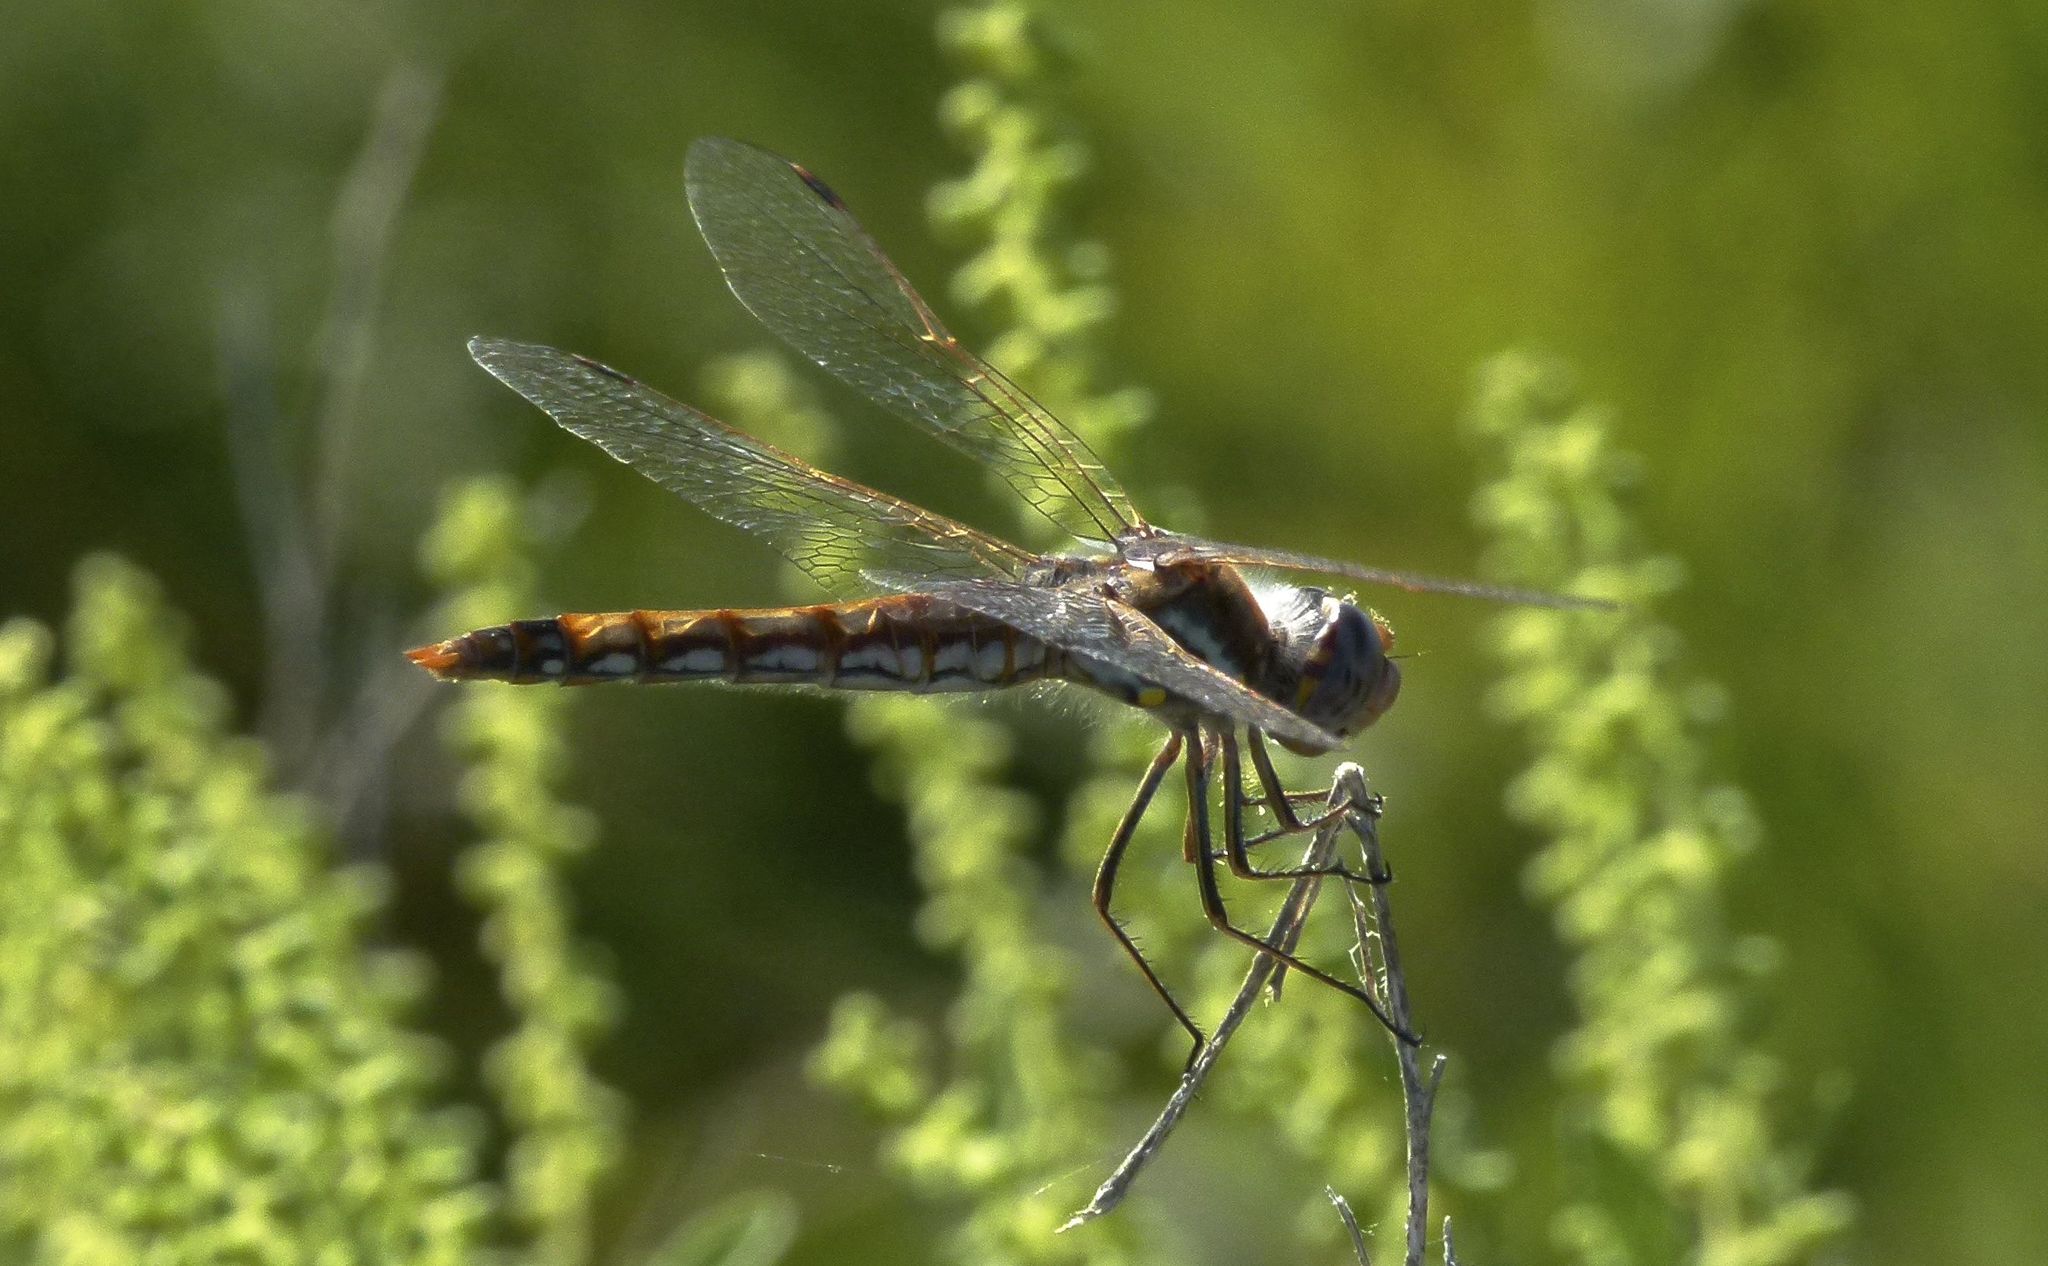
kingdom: Animalia
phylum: Arthropoda
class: Insecta
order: Odonata
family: Libellulidae
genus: Sympetrum
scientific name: Sympetrum corruptum
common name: Variegated meadowhawk
